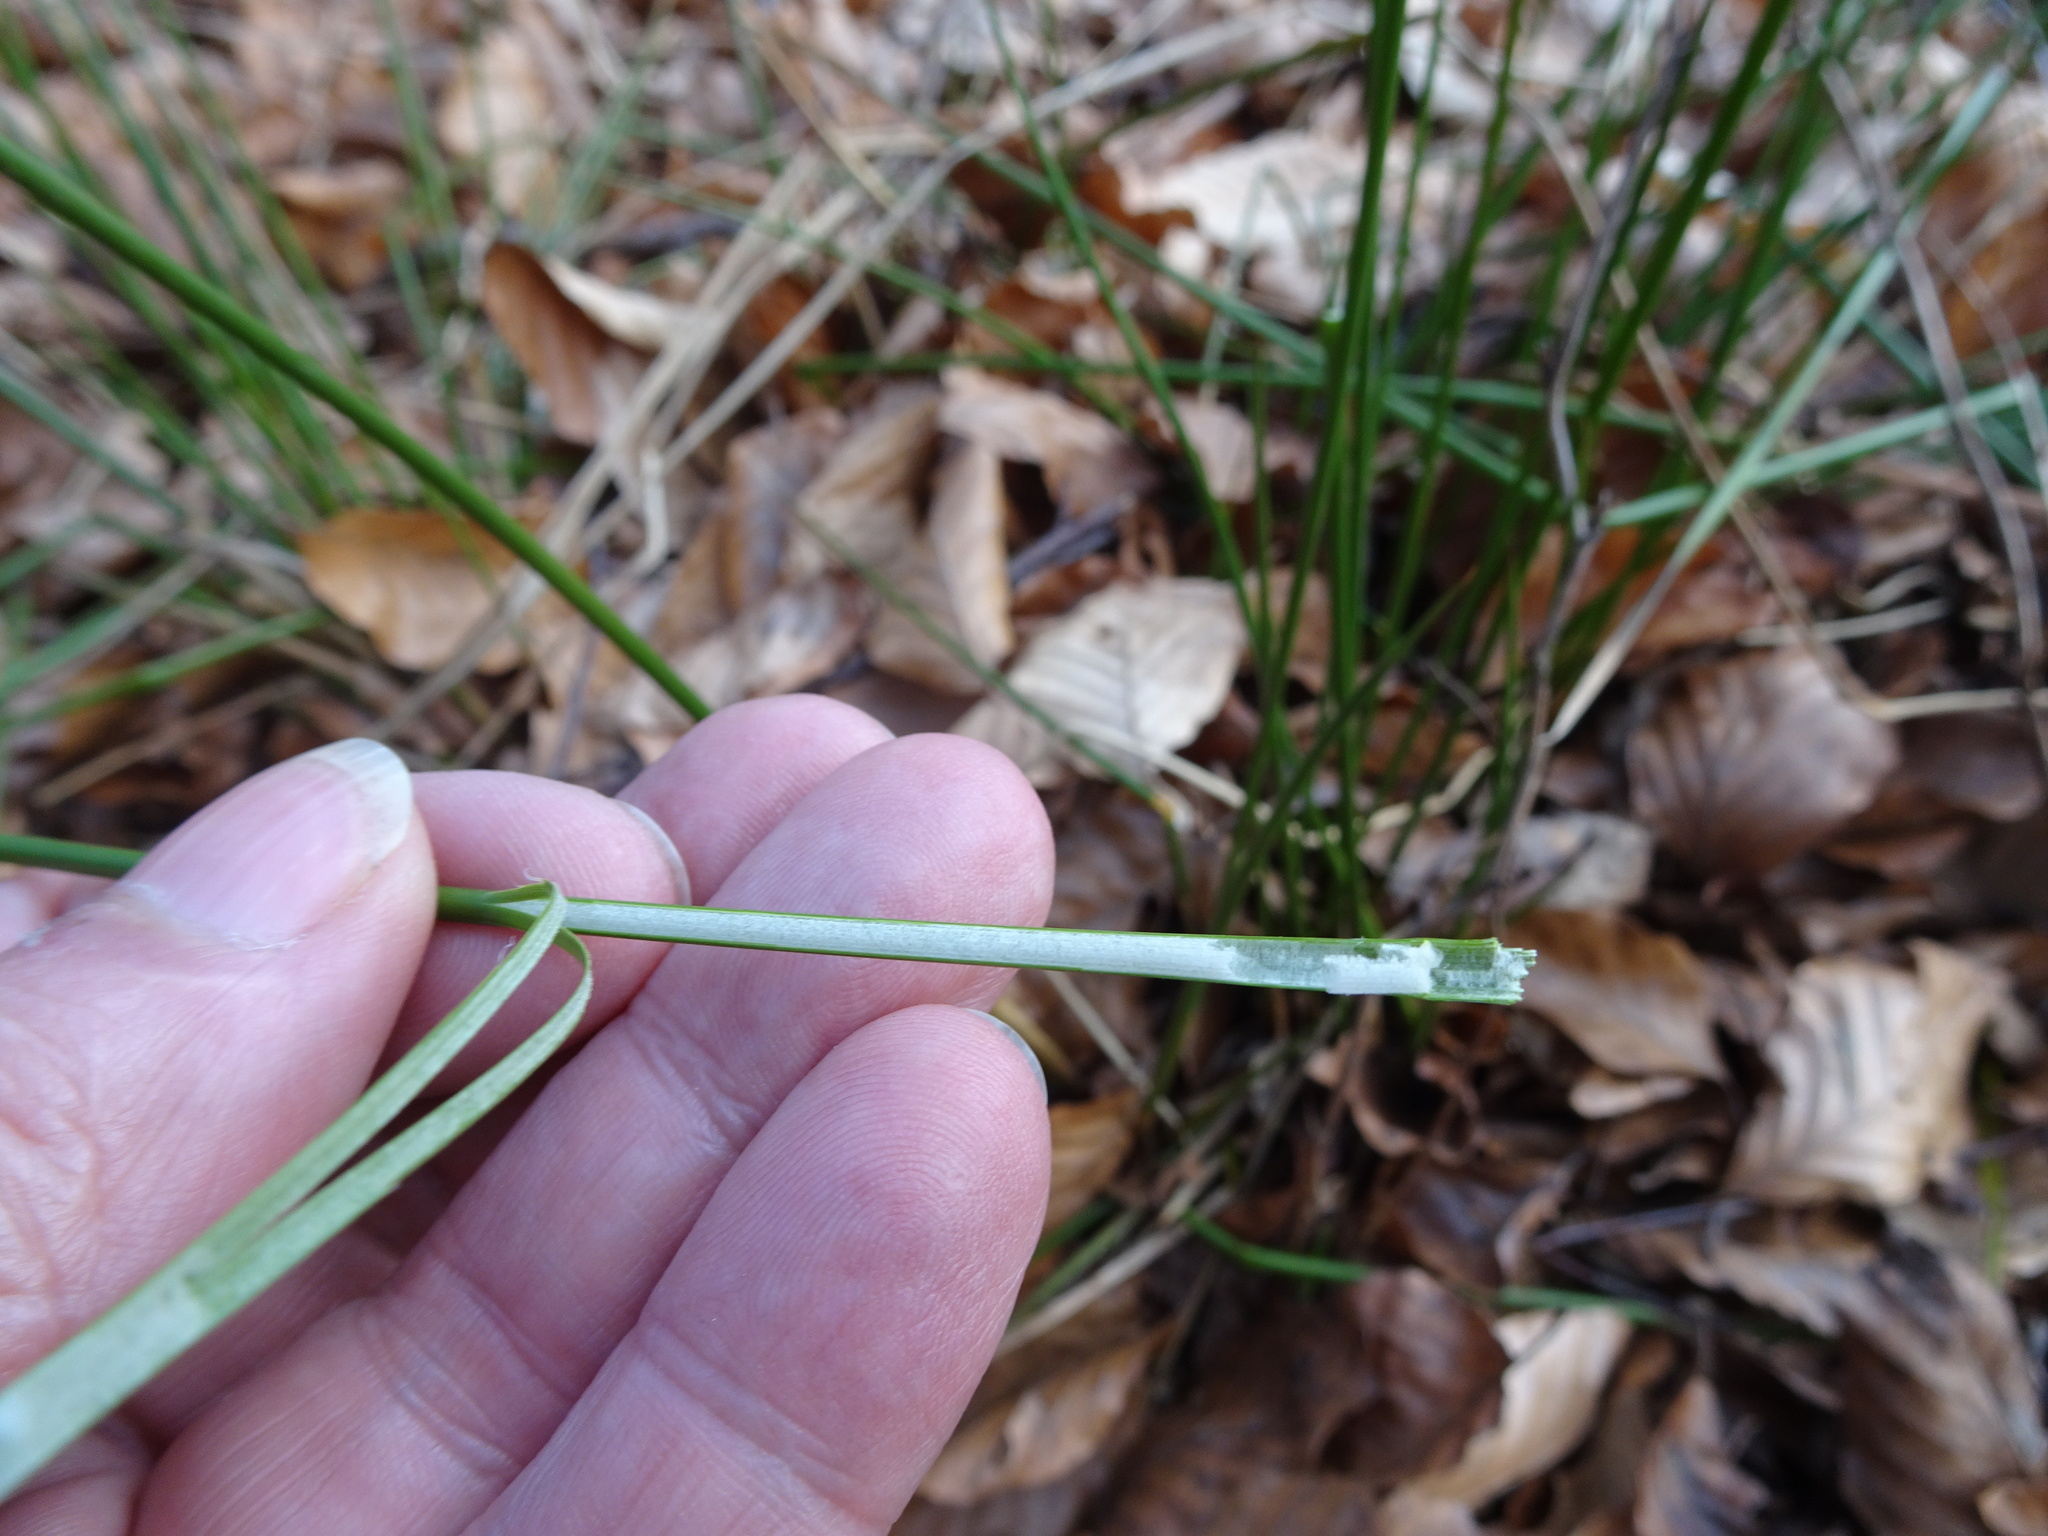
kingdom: Plantae
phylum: Tracheophyta
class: Liliopsida
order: Poales
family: Juncaceae
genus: Juncus
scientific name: Juncus effusus
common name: Soft rush
